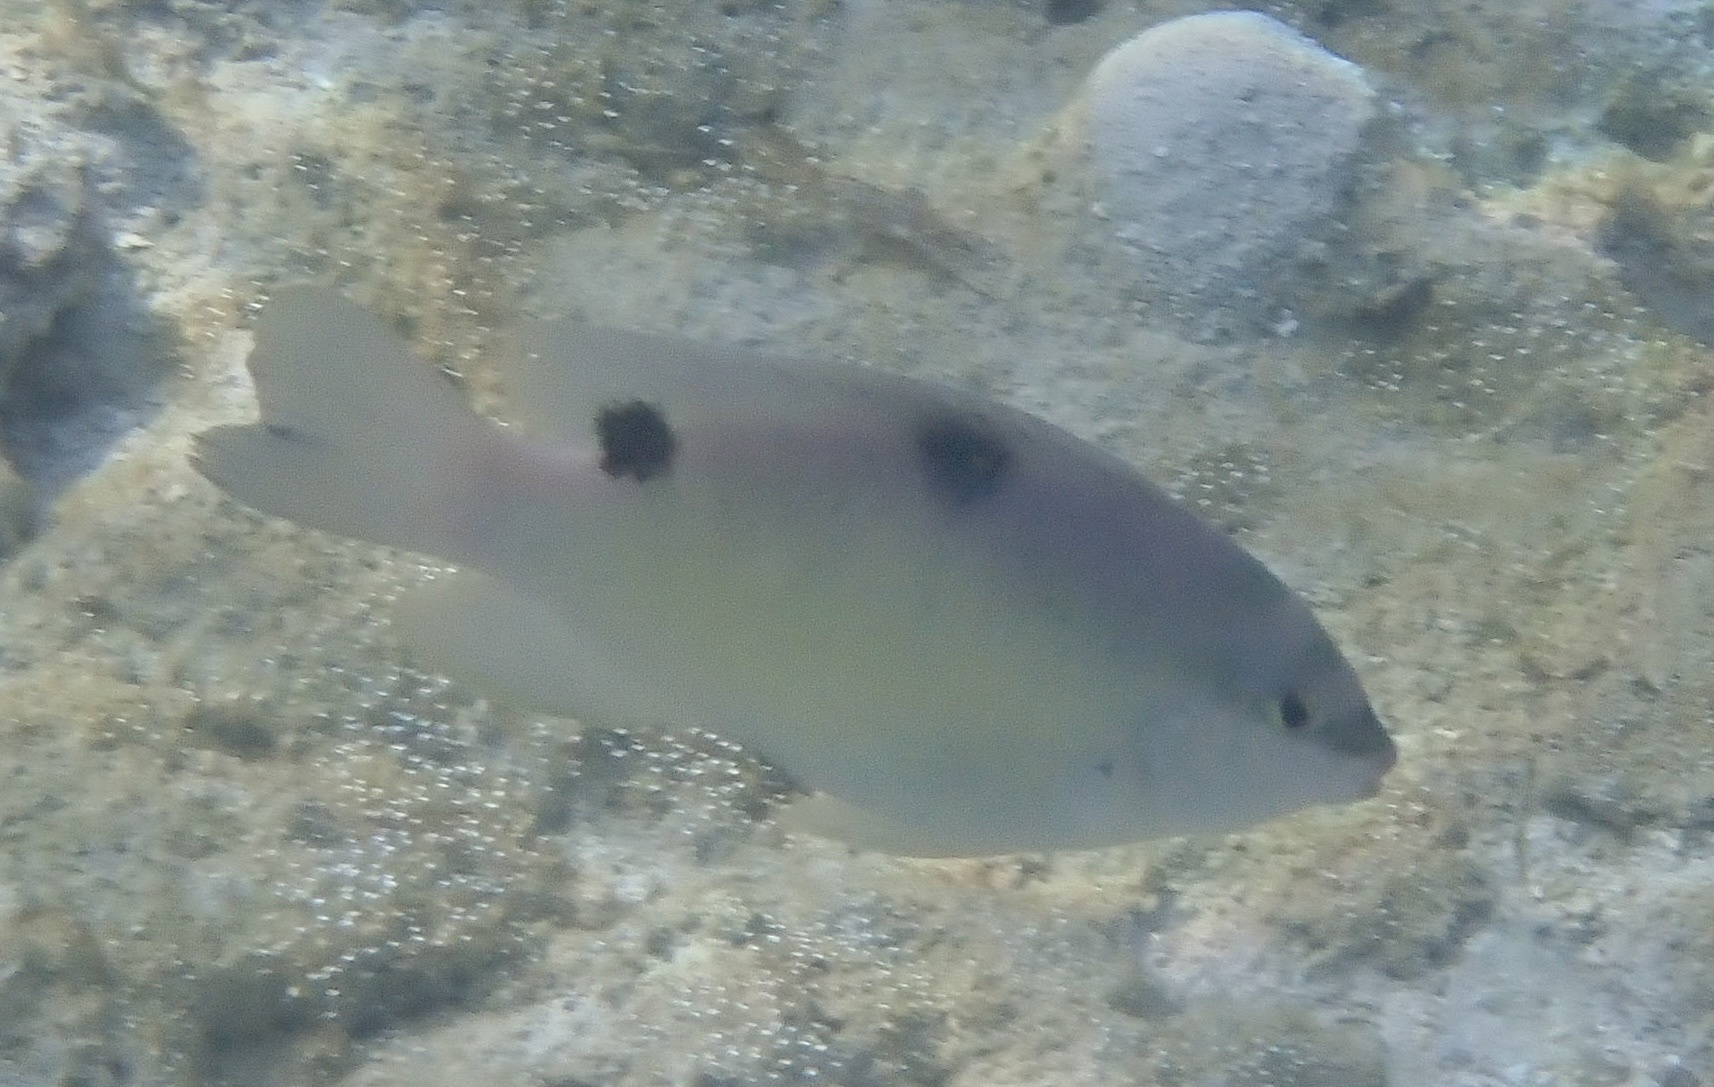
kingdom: Animalia
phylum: Chordata
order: Perciformes
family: Pomacentridae
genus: Dischistodus
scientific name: Dischistodus perspicillatus
